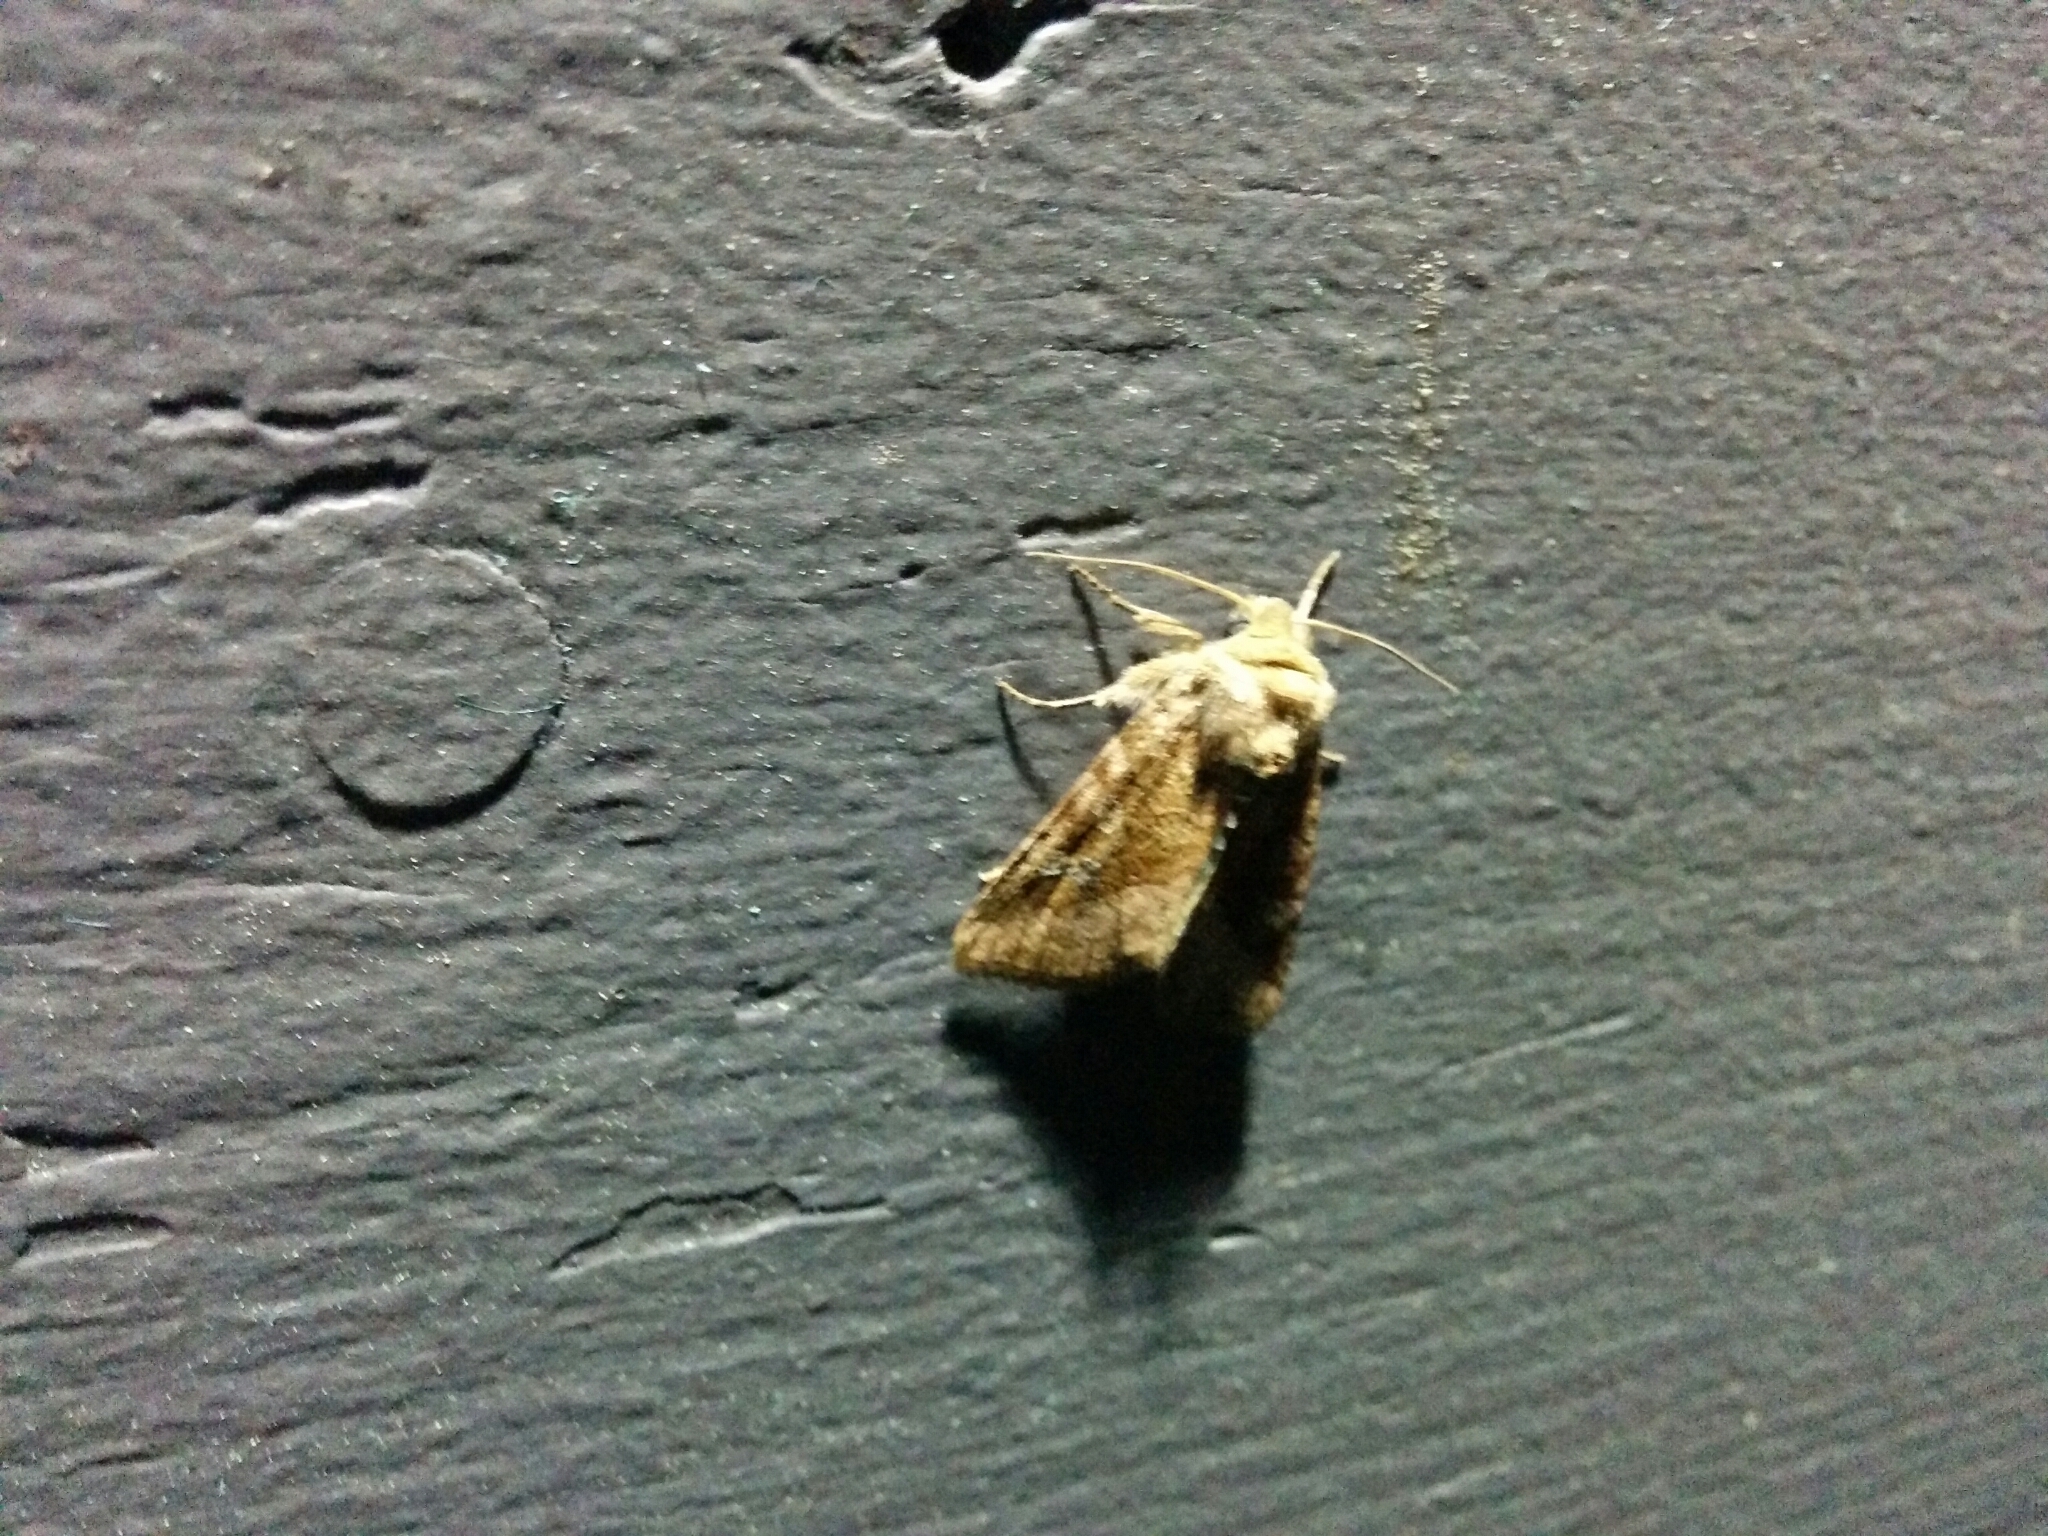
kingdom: Animalia
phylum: Arthropoda
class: Insecta
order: Lepidoptera
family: Noctuidae
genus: Loscopia
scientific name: Loscopia velata
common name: Veiled ear moth
